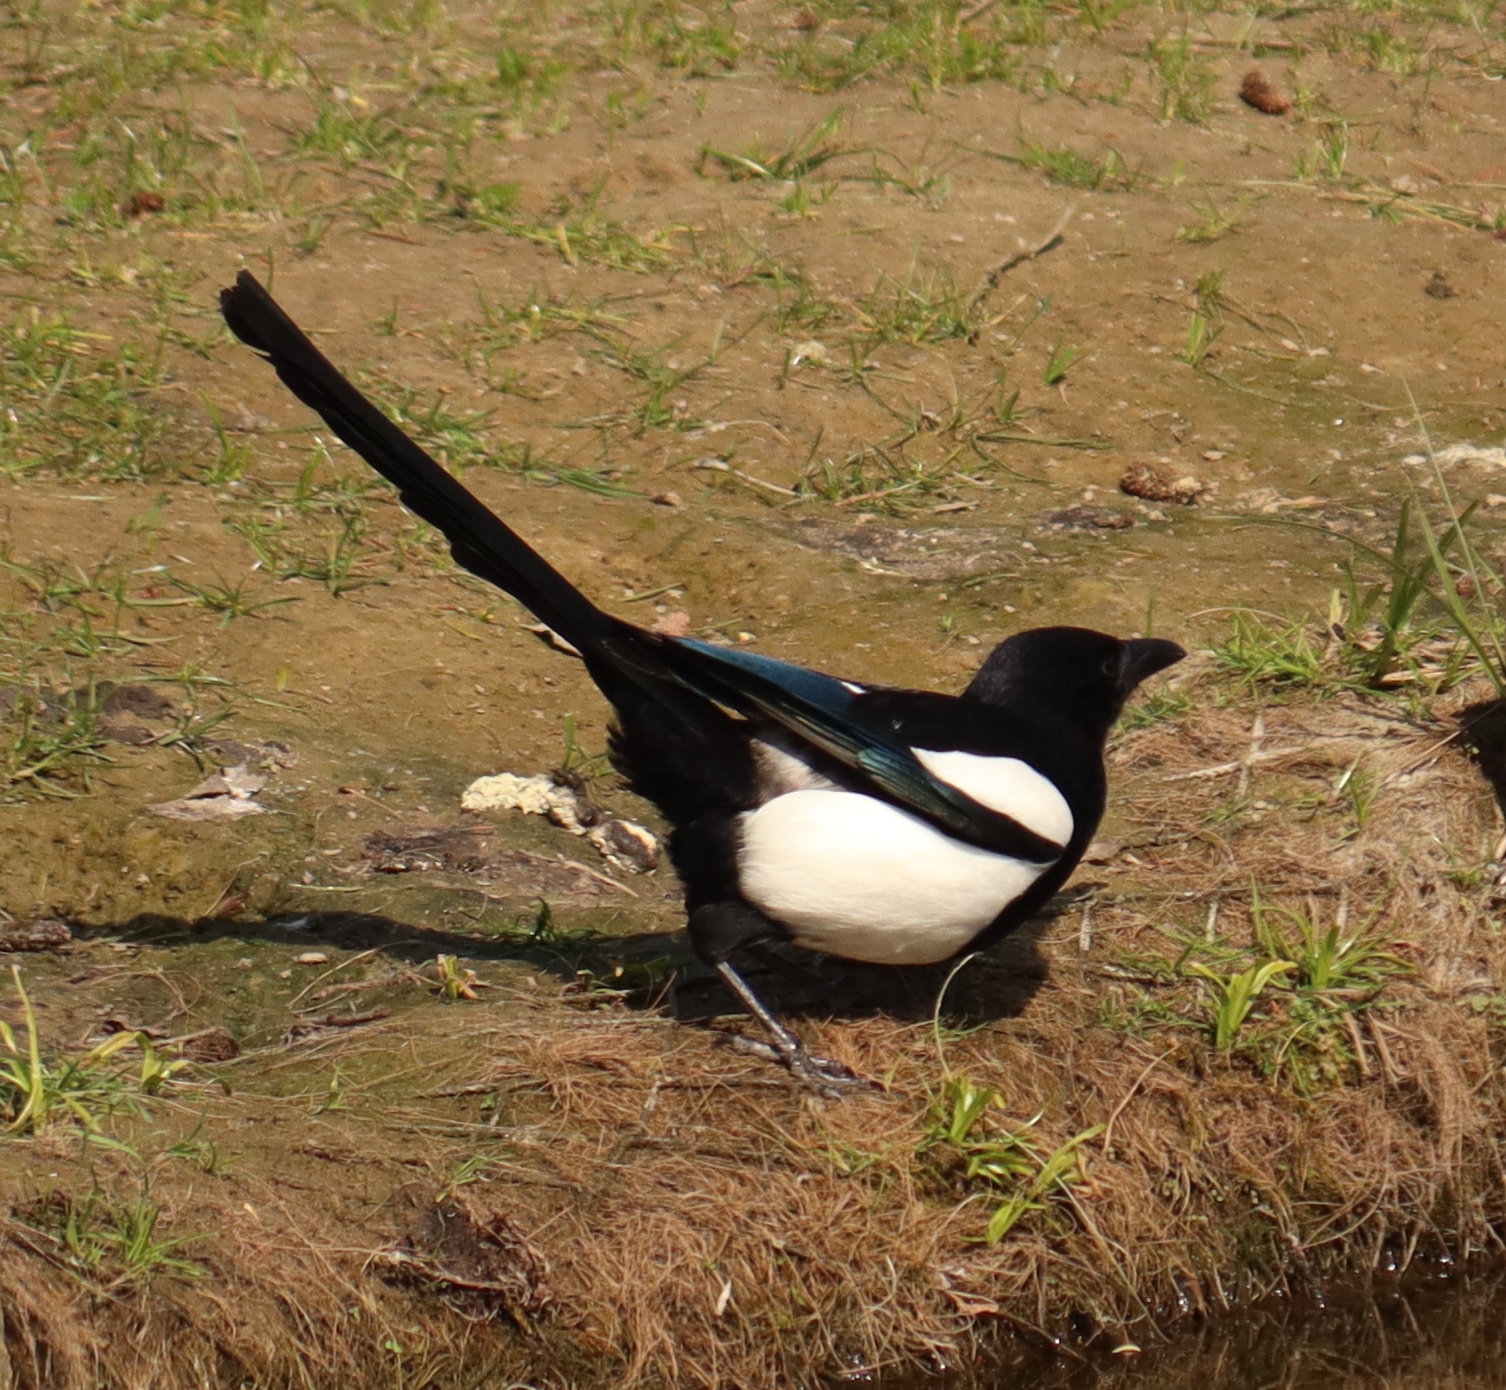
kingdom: Animalia
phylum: Chordata
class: Aves
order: Passeriformes
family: Corvidae
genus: Pica
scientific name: Pica pica
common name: Eurasian magpie
